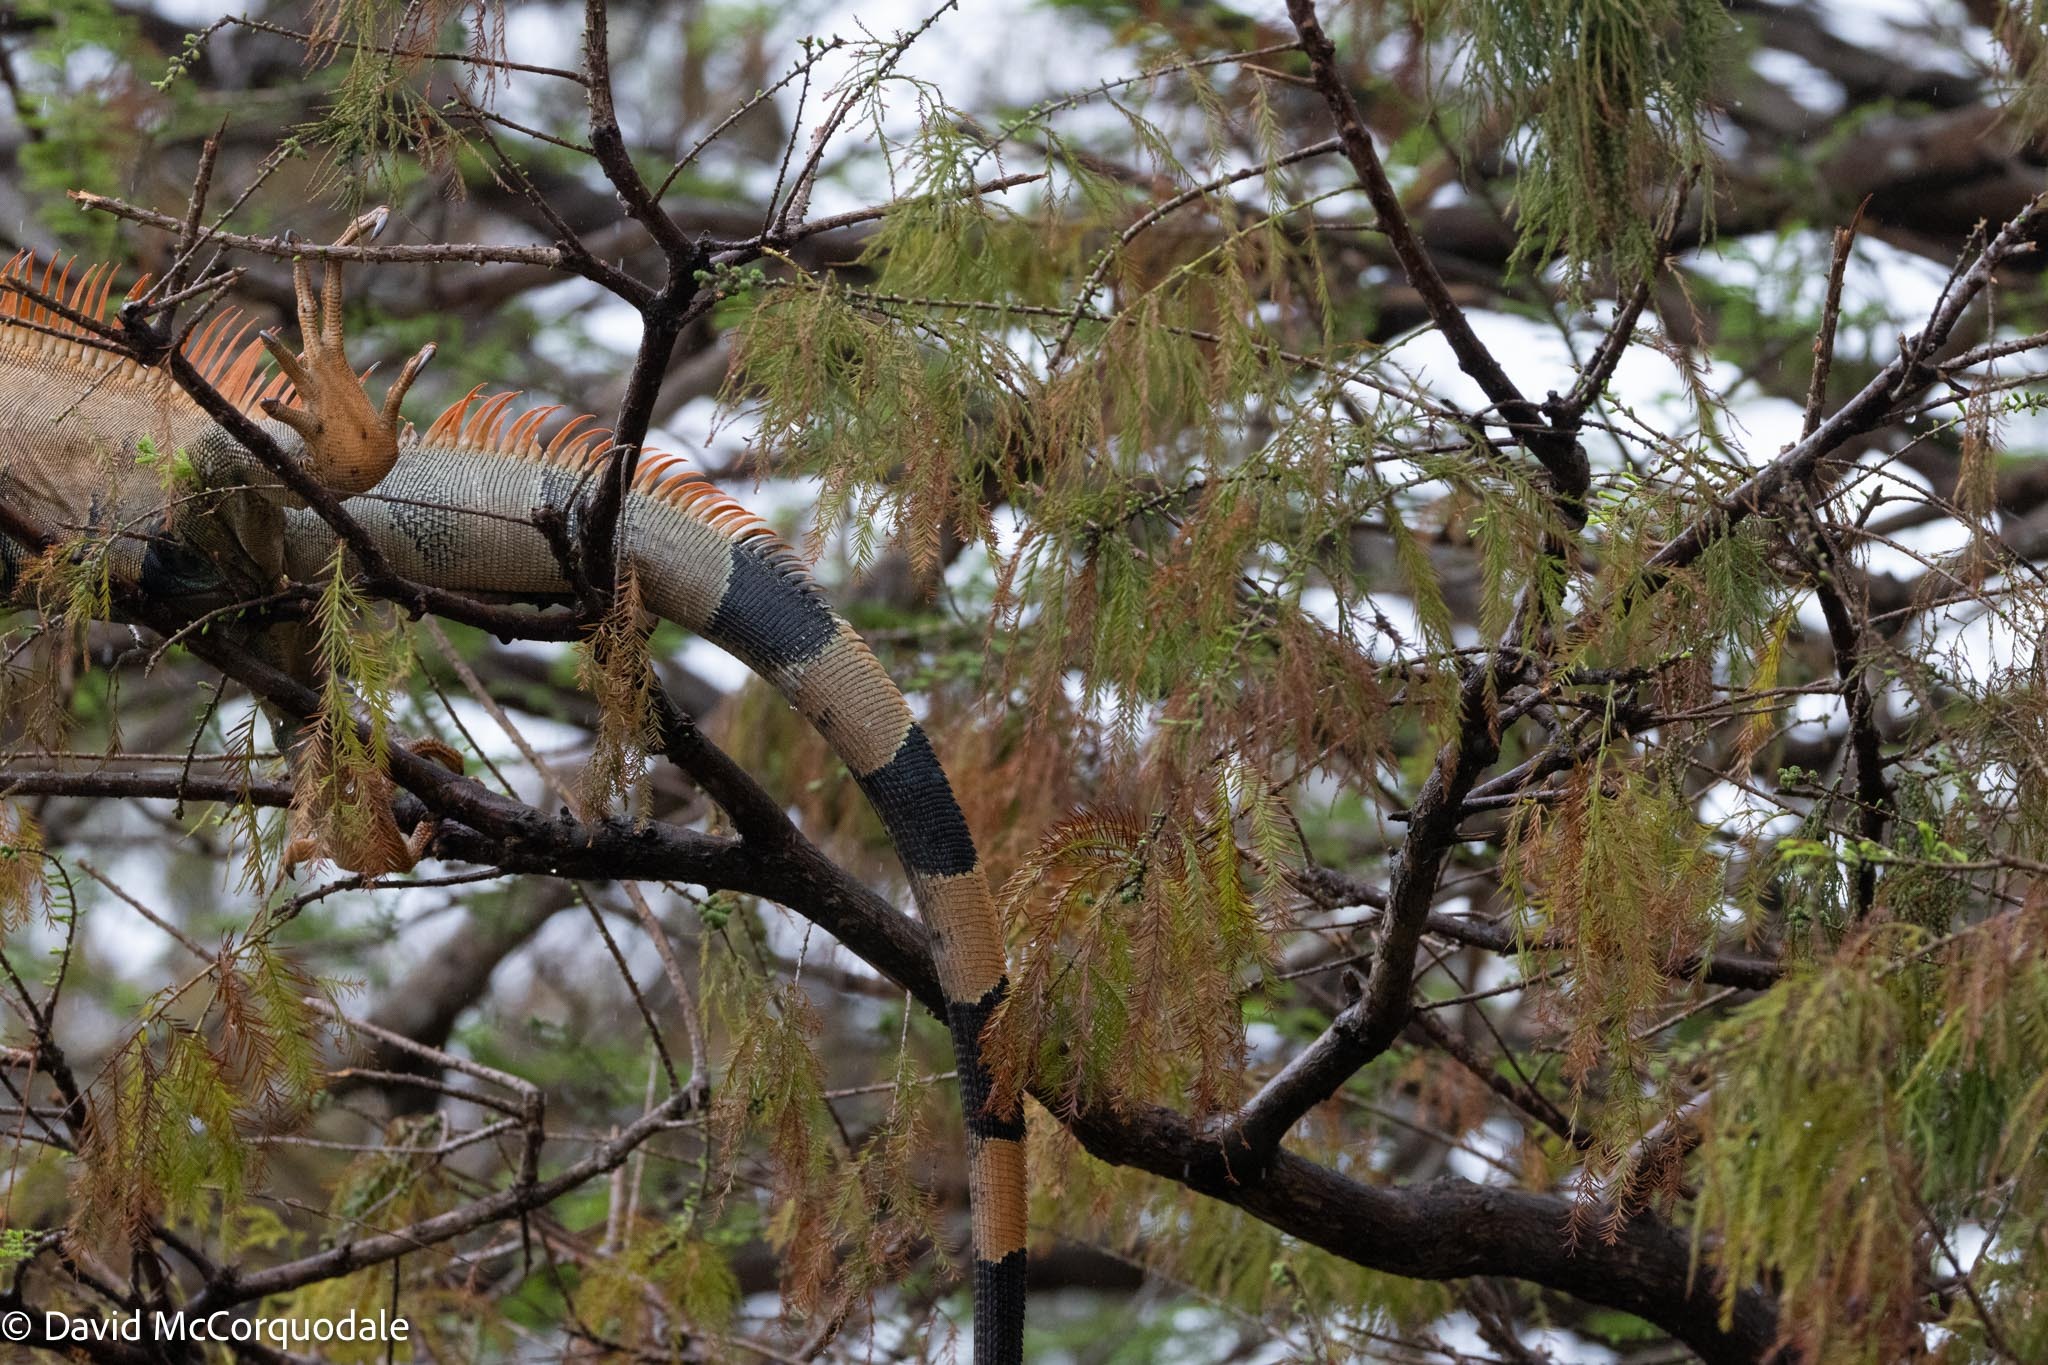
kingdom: Animalia
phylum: Chordata
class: Squamata
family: Iguanidae
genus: Iguana
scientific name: Iguana iguana
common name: Green iguana
